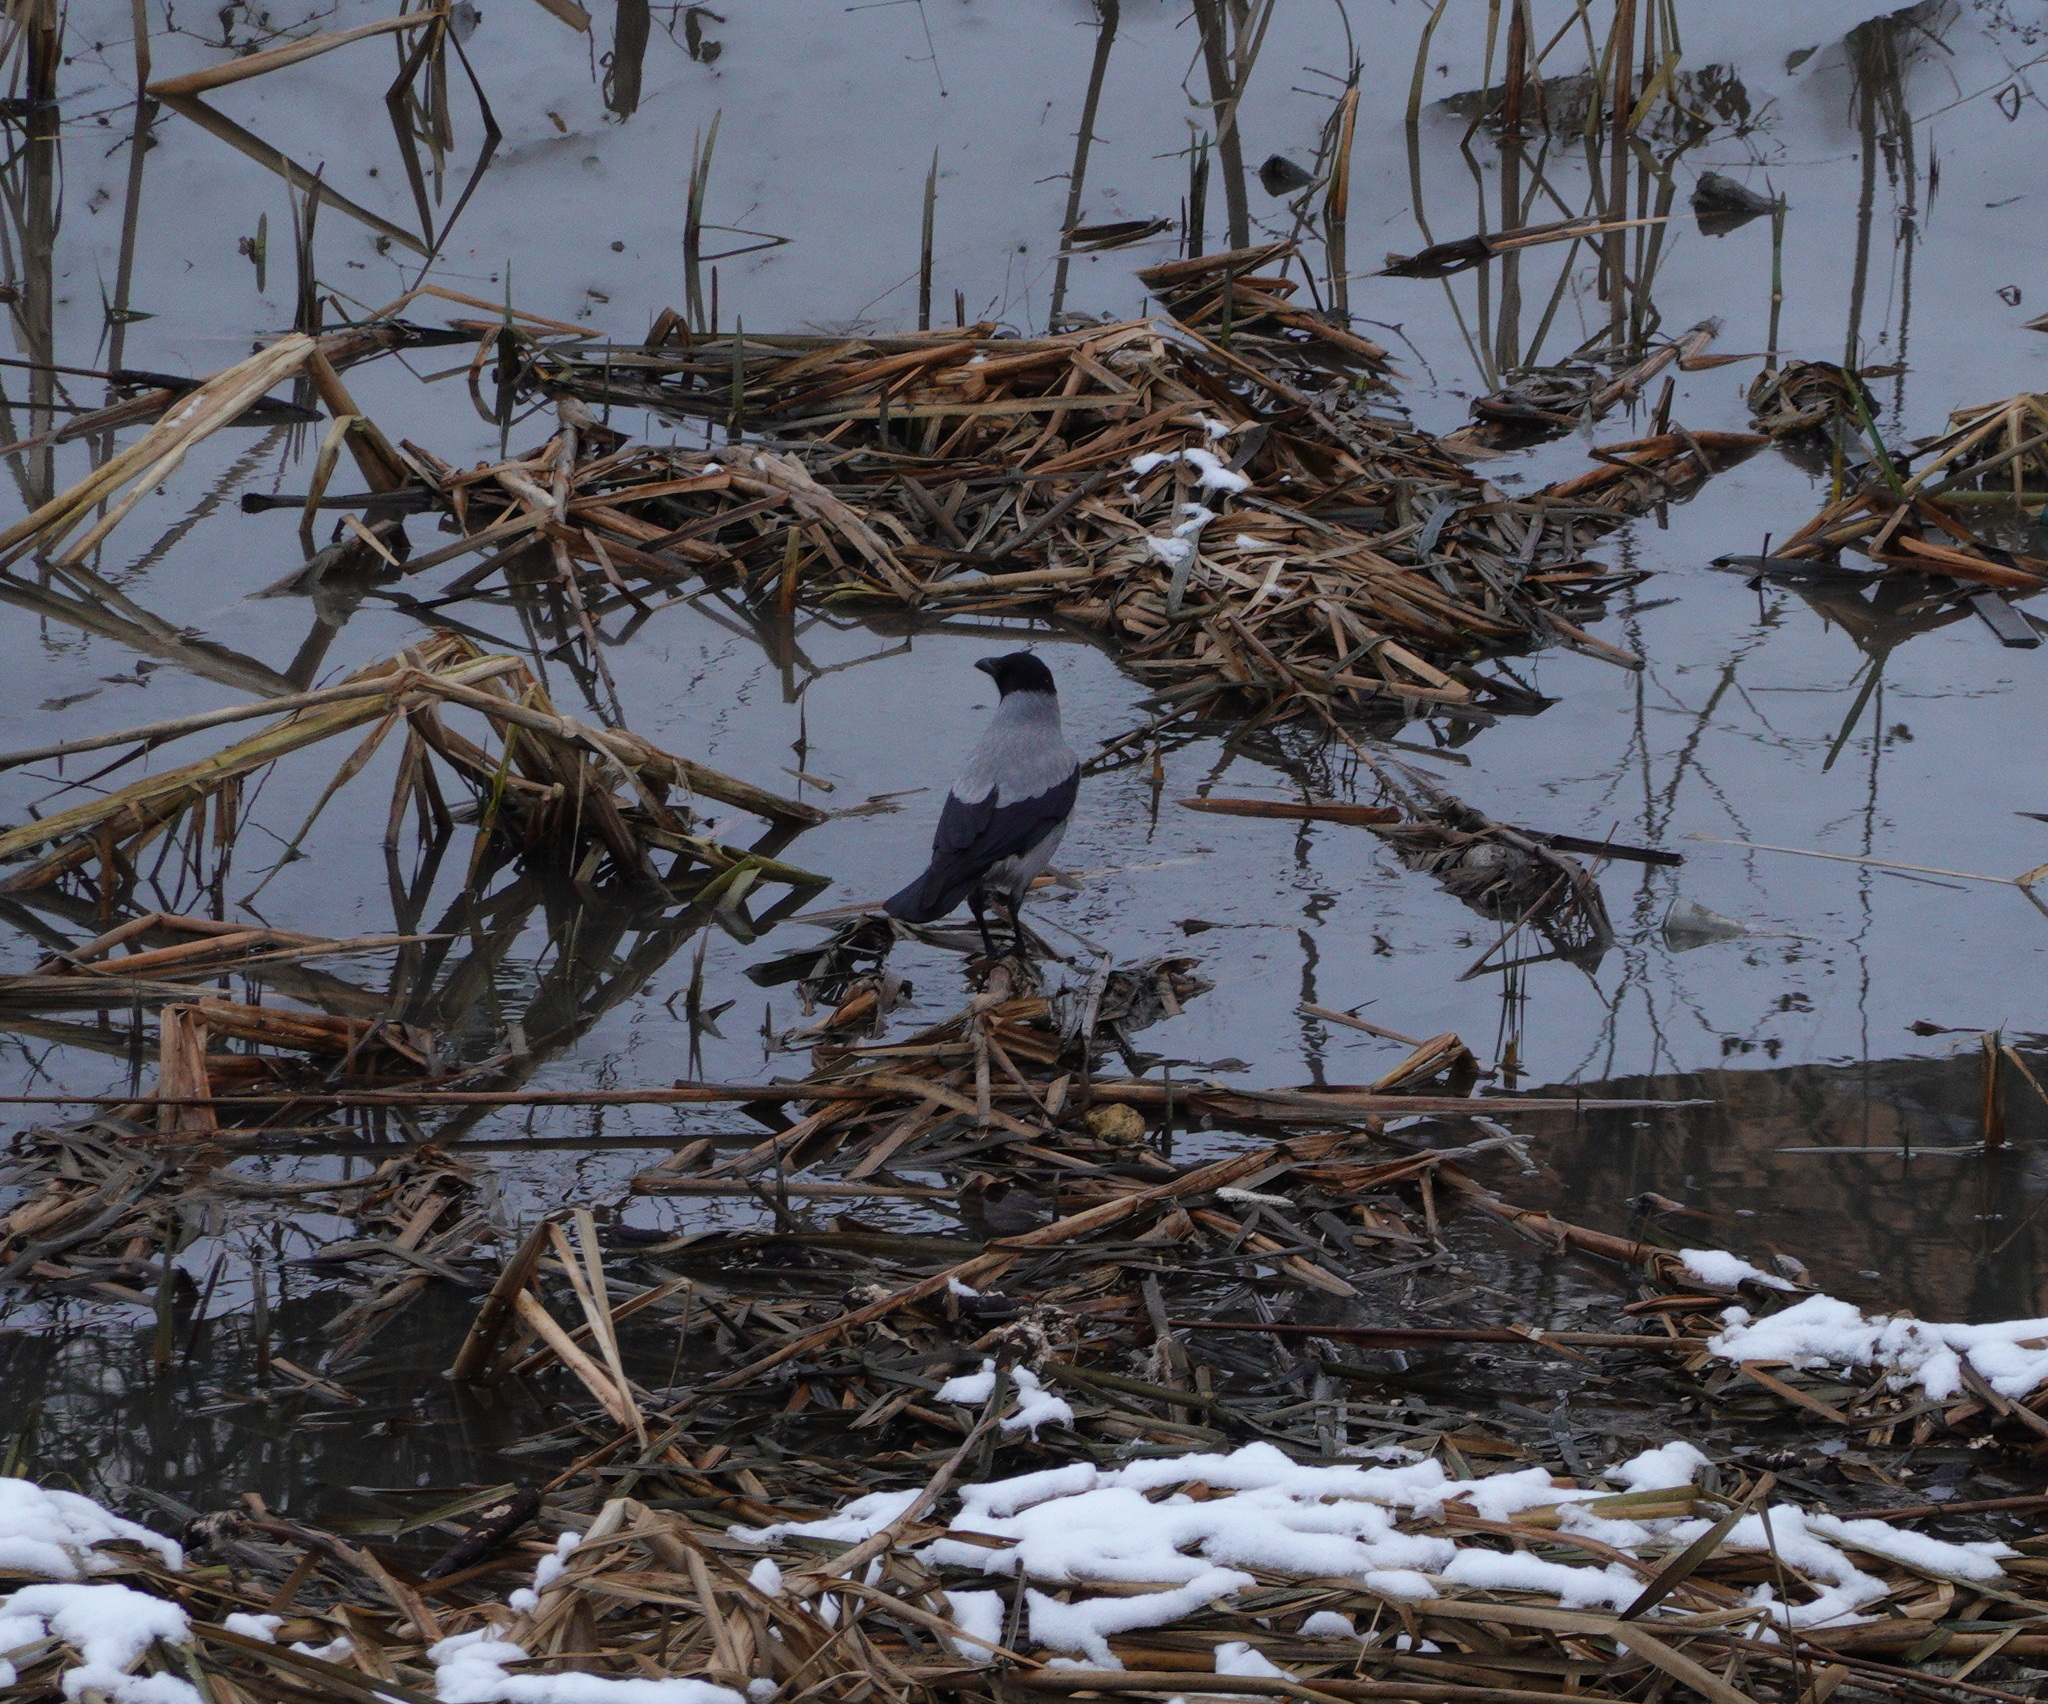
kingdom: Animalia
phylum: Chordata
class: Aves
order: Passeriformes
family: Corvidae
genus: Corvus
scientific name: Corvus cornix
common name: Hooded crow
